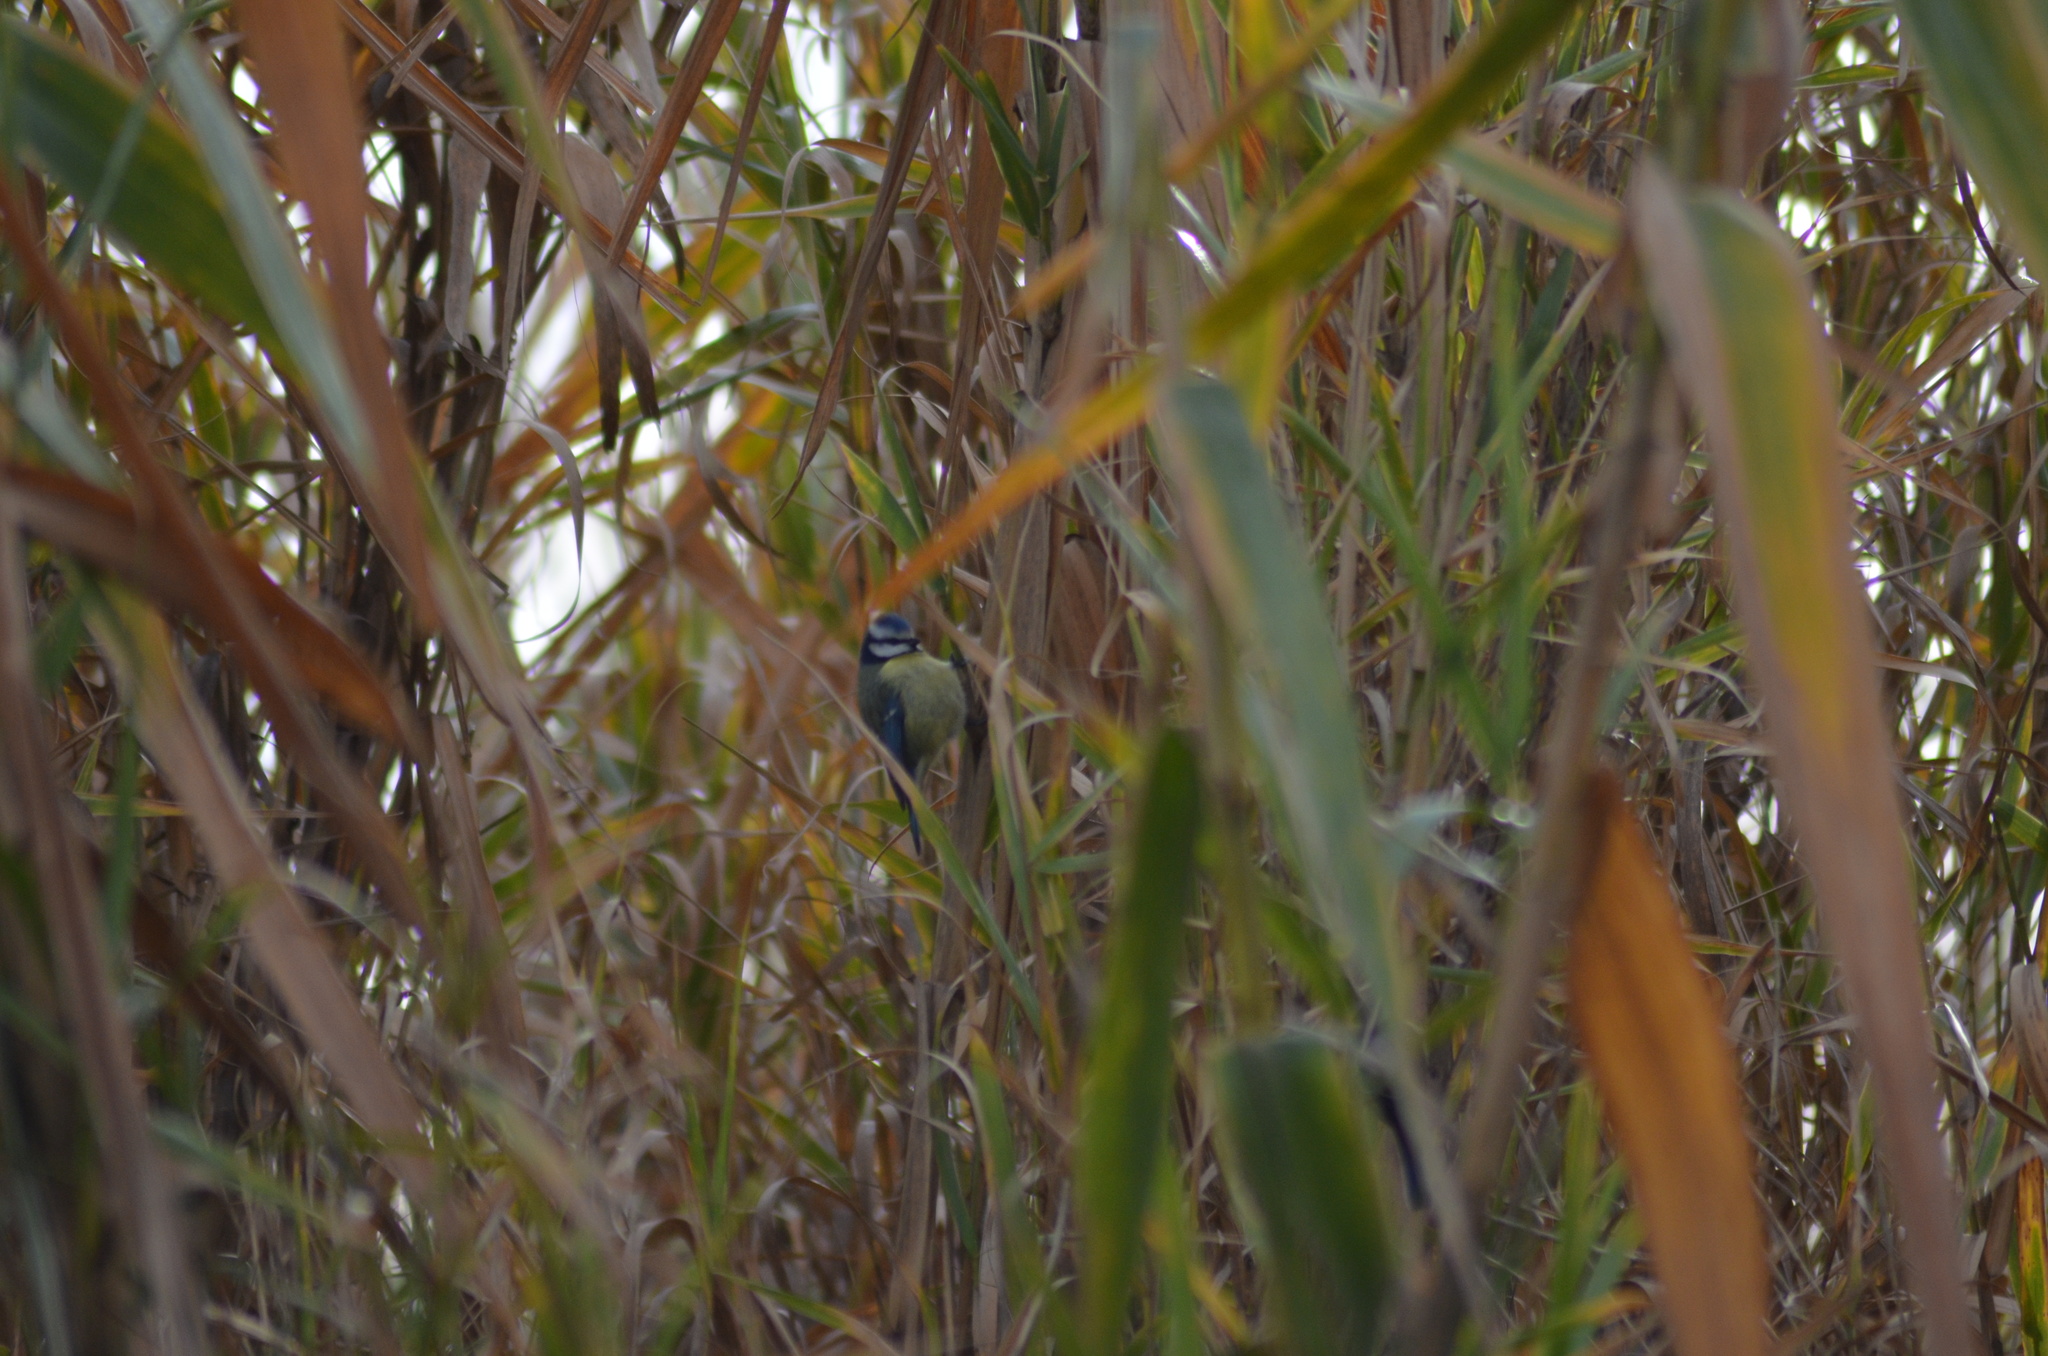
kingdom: Animalia
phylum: Chordata
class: Aves
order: Passeriformes
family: Paridae
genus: Cyanistes
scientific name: Cyanistes caeruleus
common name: Eurasian blue tit
